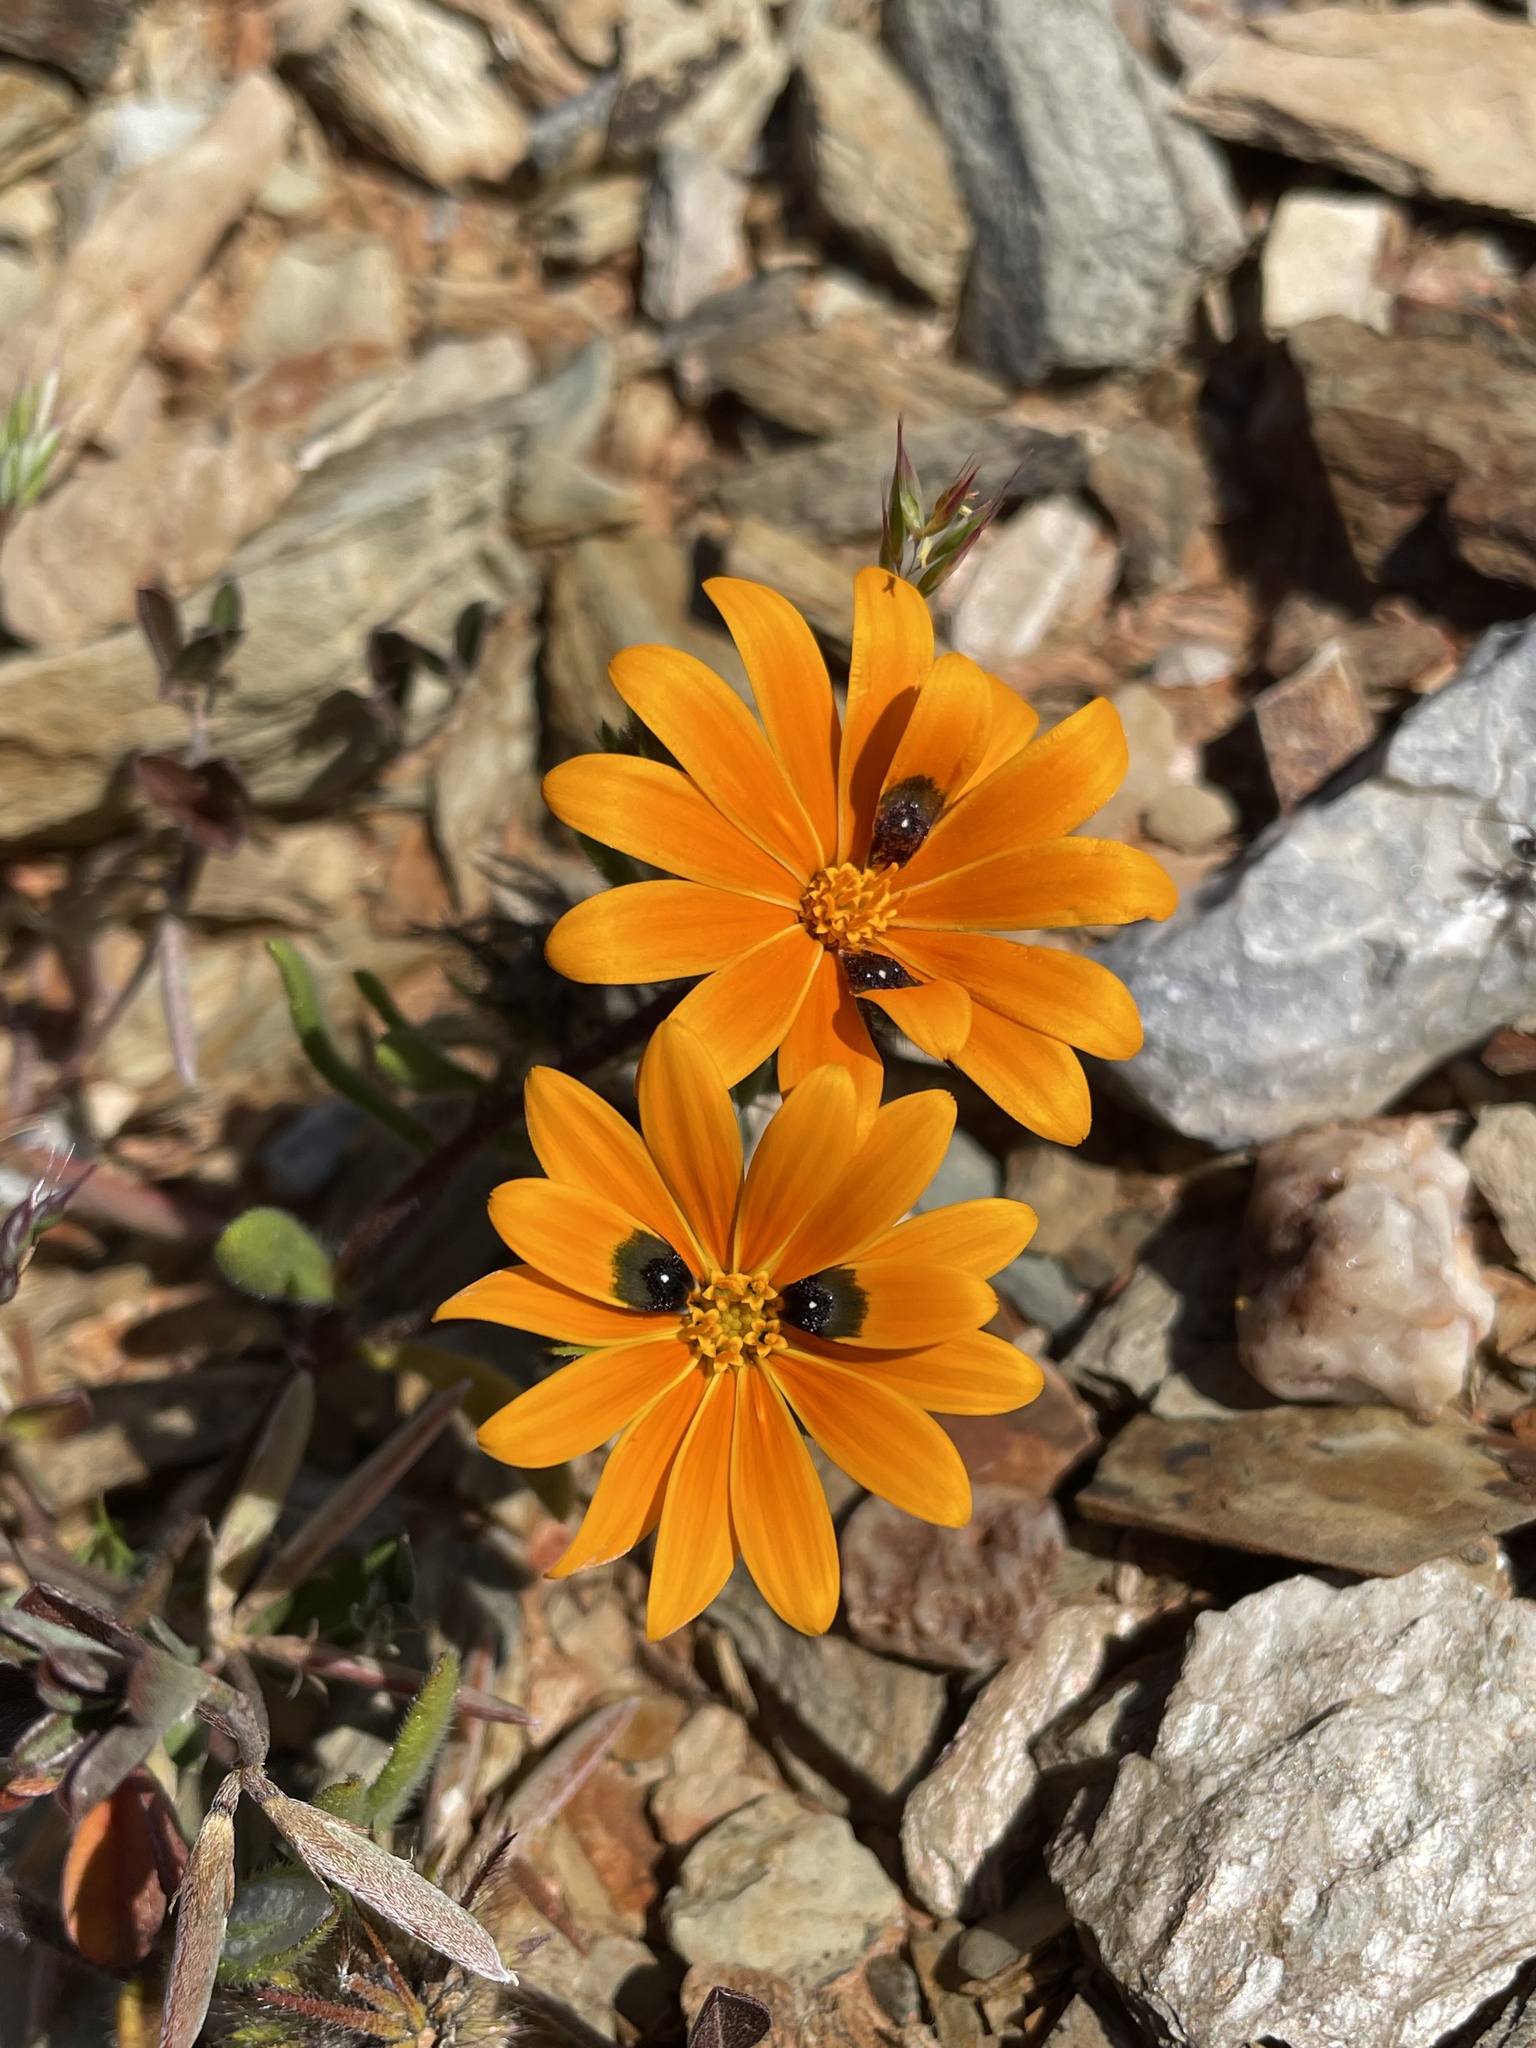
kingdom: Plantae
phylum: Tracheophyta
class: Magnoliopsida
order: Asterales
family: Asteraceae
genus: Gorteria
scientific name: Gorteria diffusa
